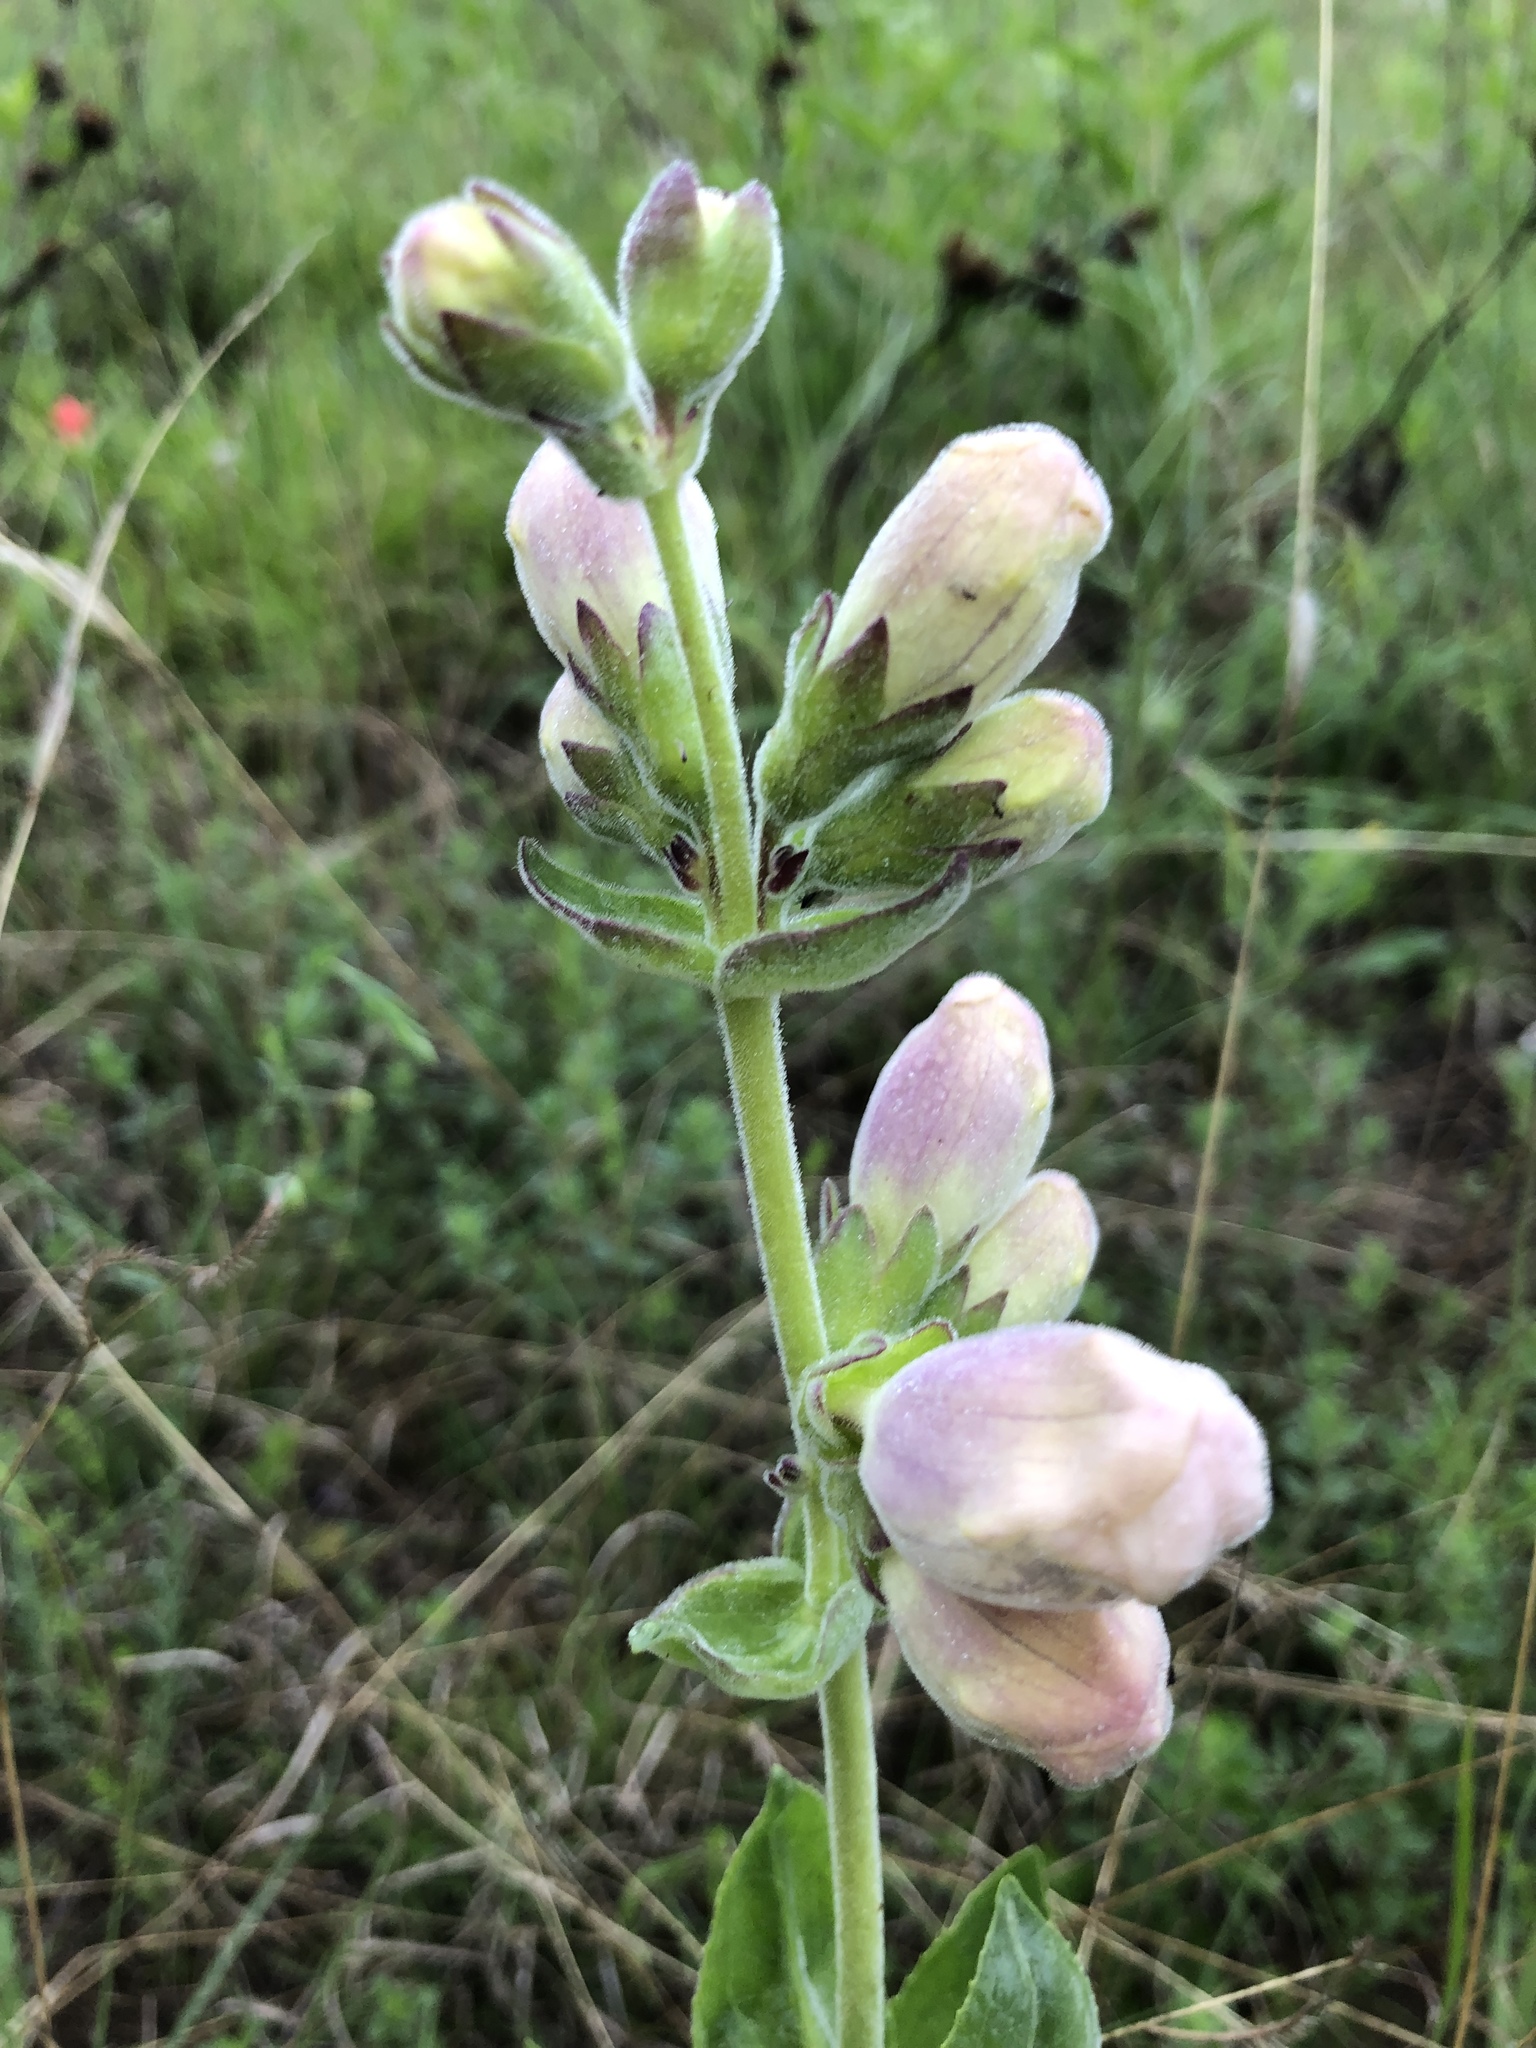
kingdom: Plantae
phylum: Tracheophyta
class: Magnoliopsida
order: Lamiales
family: Plantaginaceae
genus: Penstemon
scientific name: Penstemon cobaea
